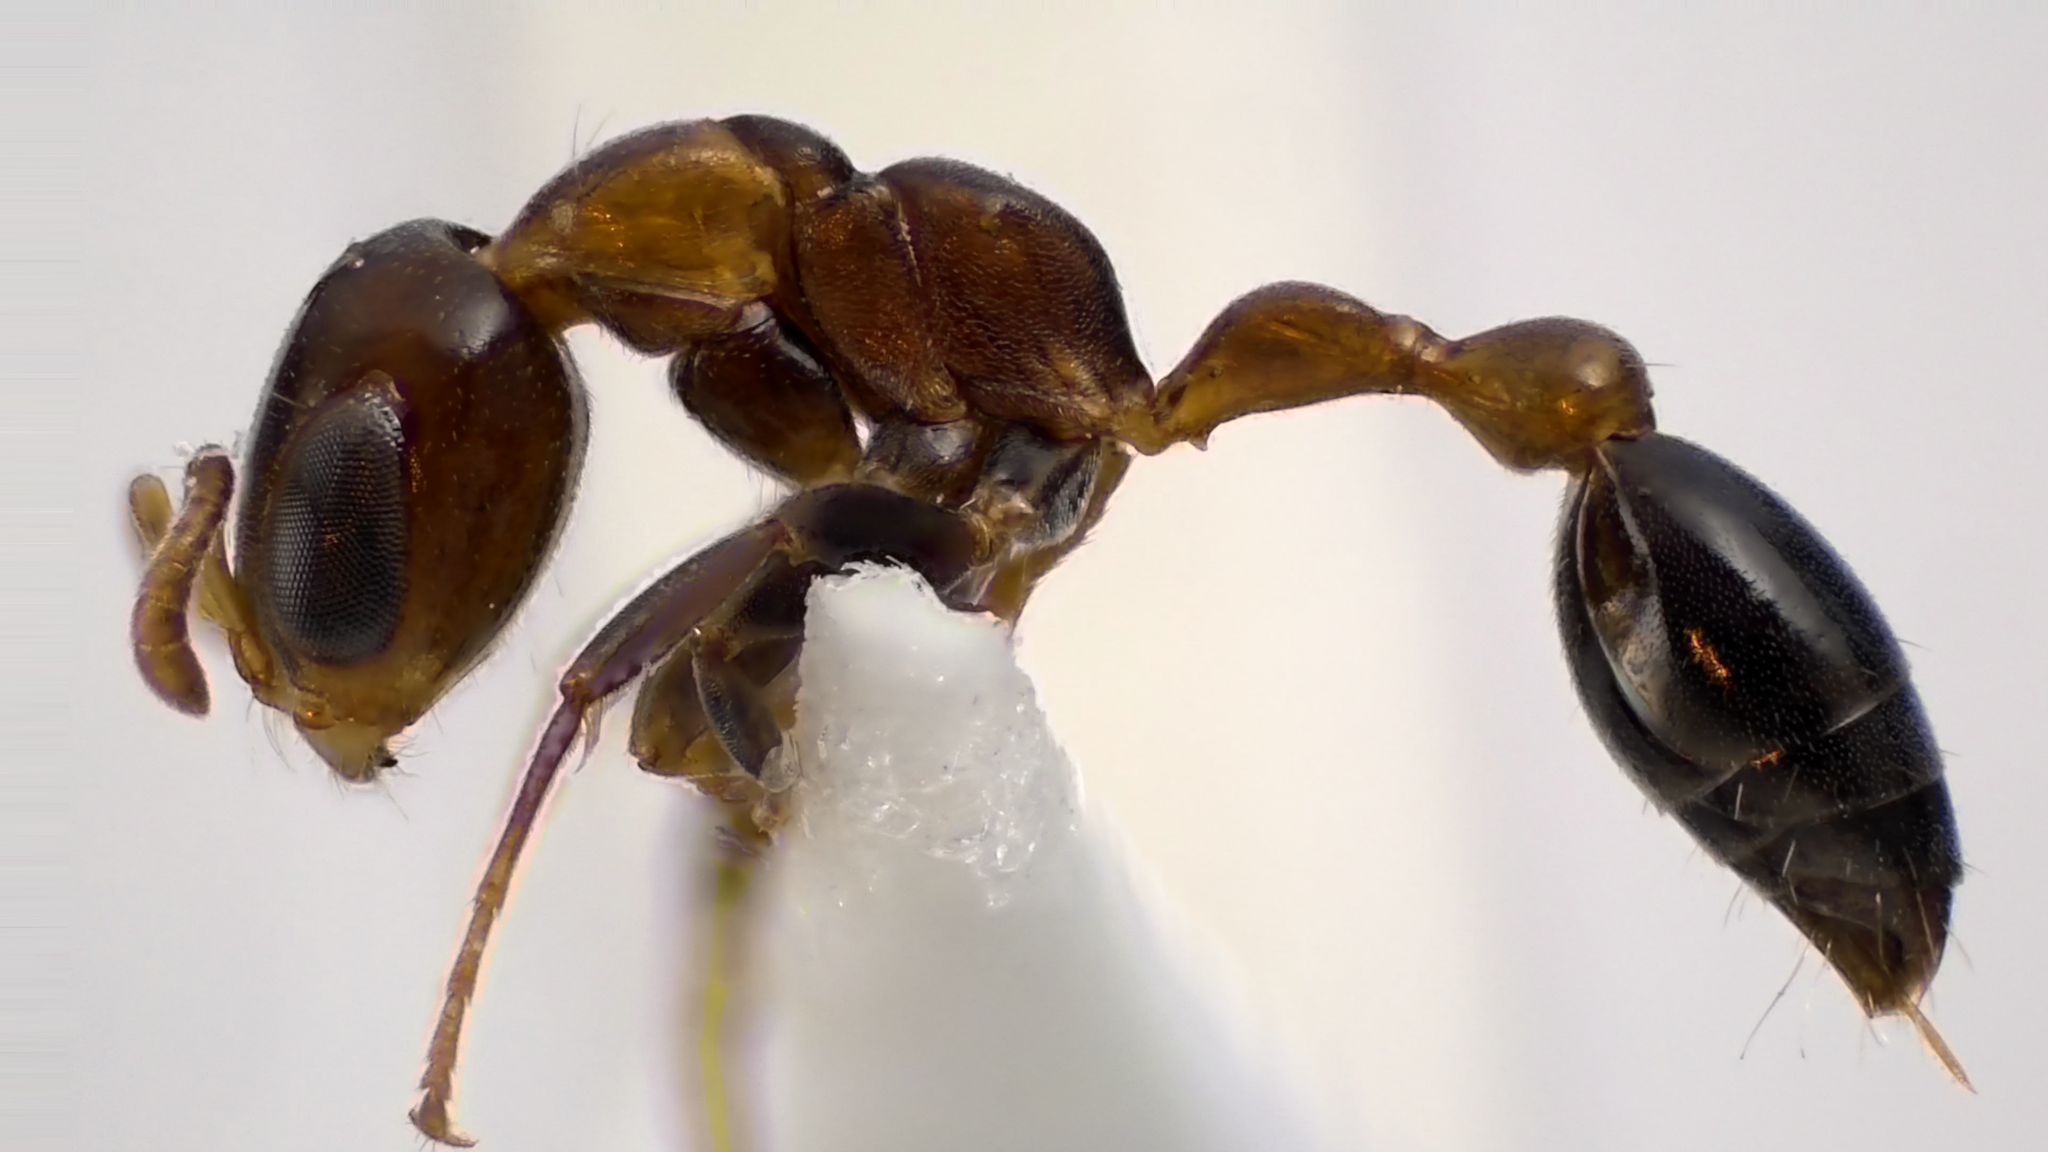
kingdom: Animalia
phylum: Arthropoda
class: Insecta
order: Hymenoptera
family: Formicidae
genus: Pseudomyrmex
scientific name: Pseudomyrmex ejectus
